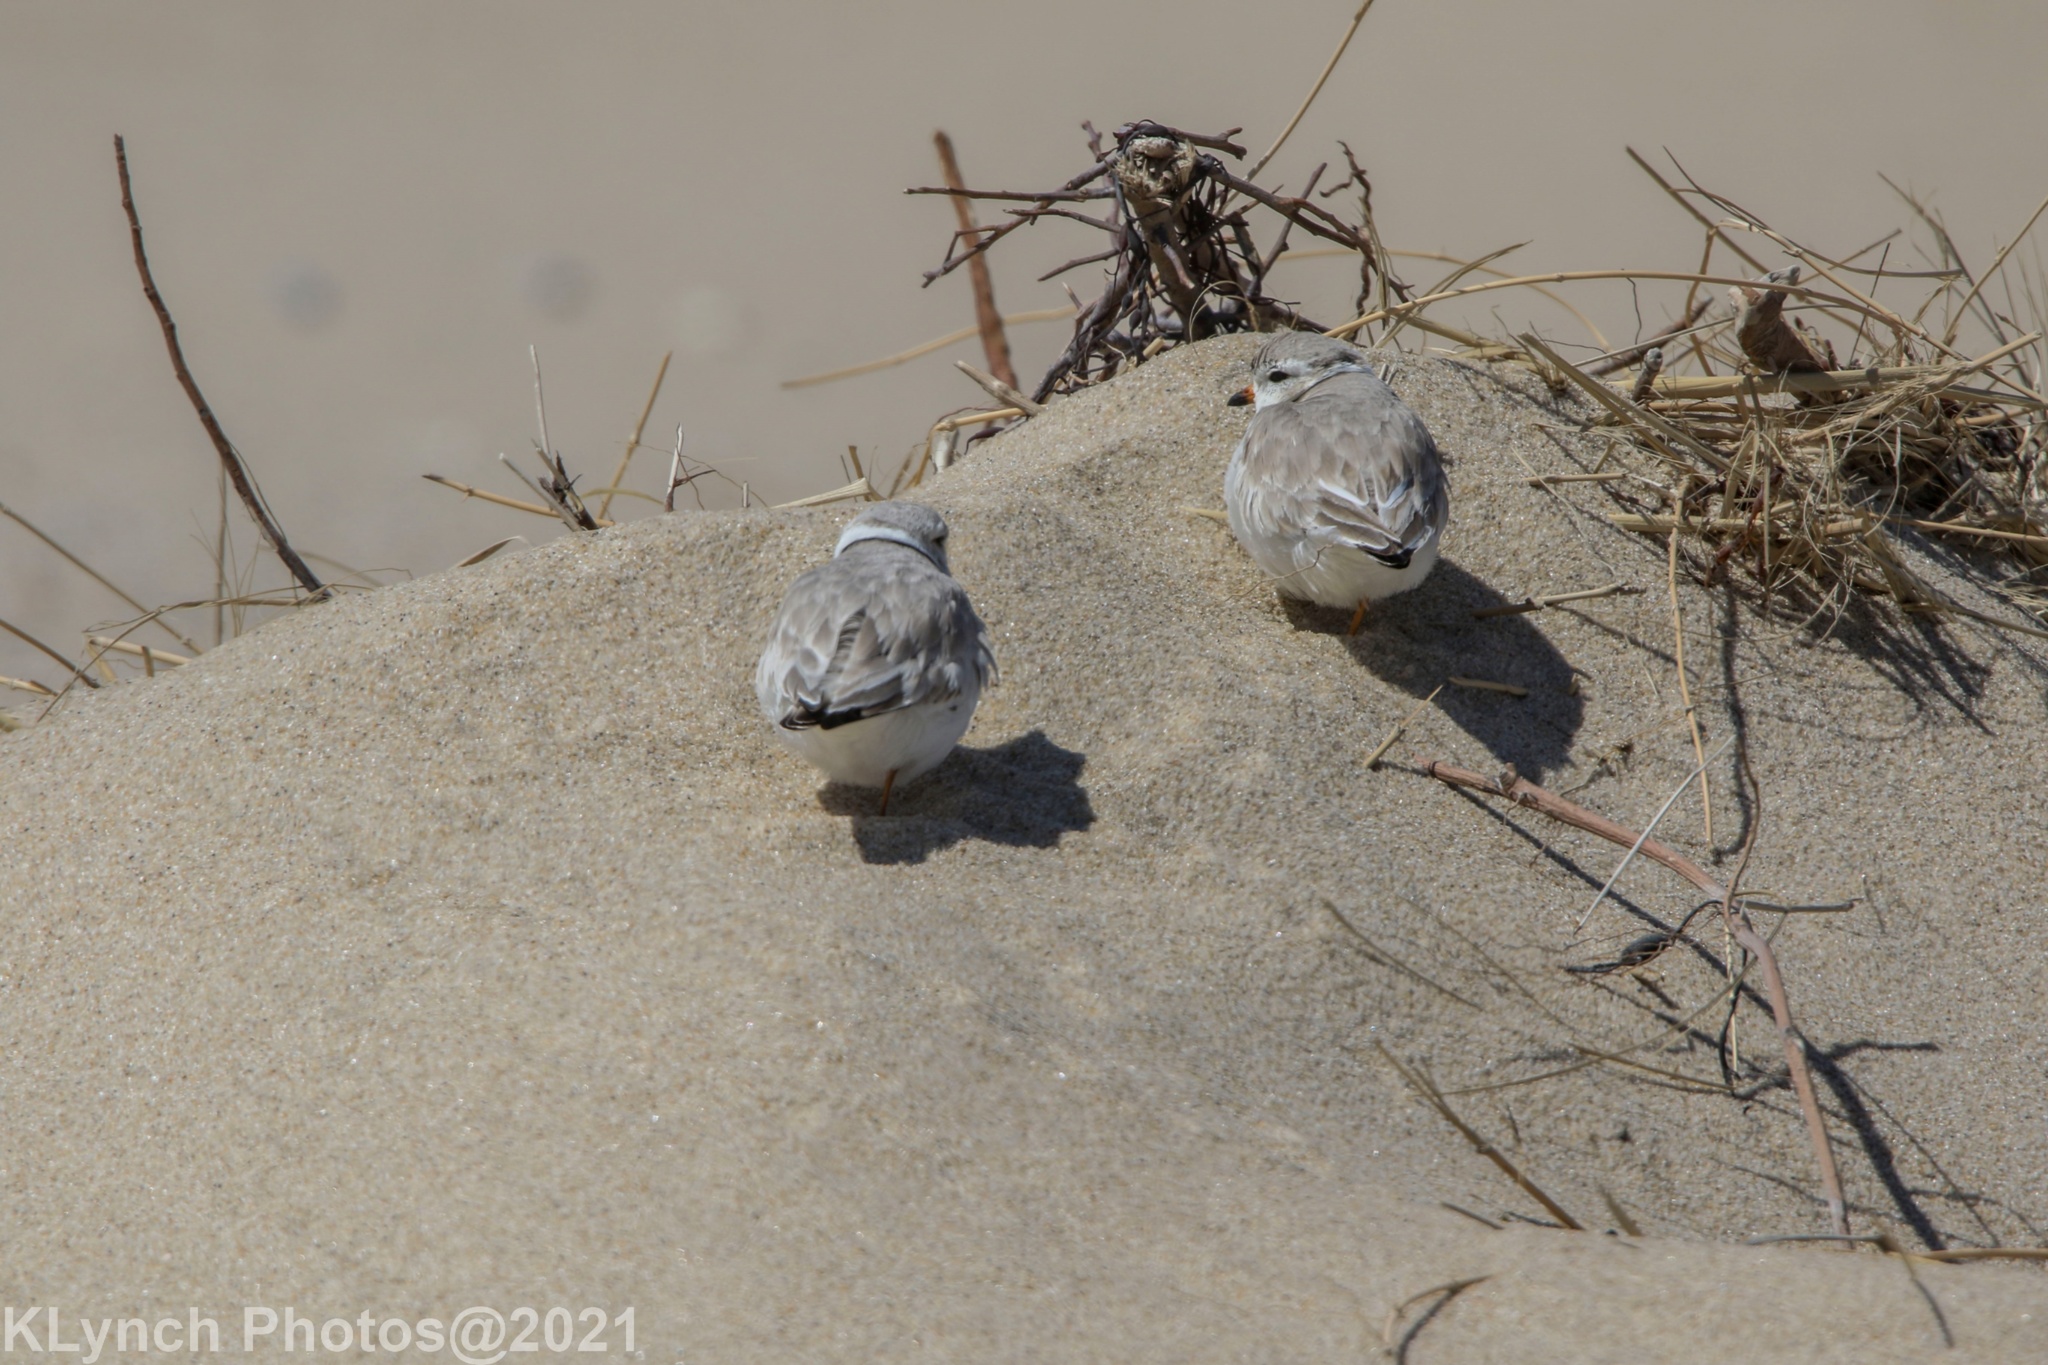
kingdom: Animalia
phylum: Chordata
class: Aves
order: Charadriiformes
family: Charadriidae
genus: Charadrius
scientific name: Charadrius melodus
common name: Piping plover
